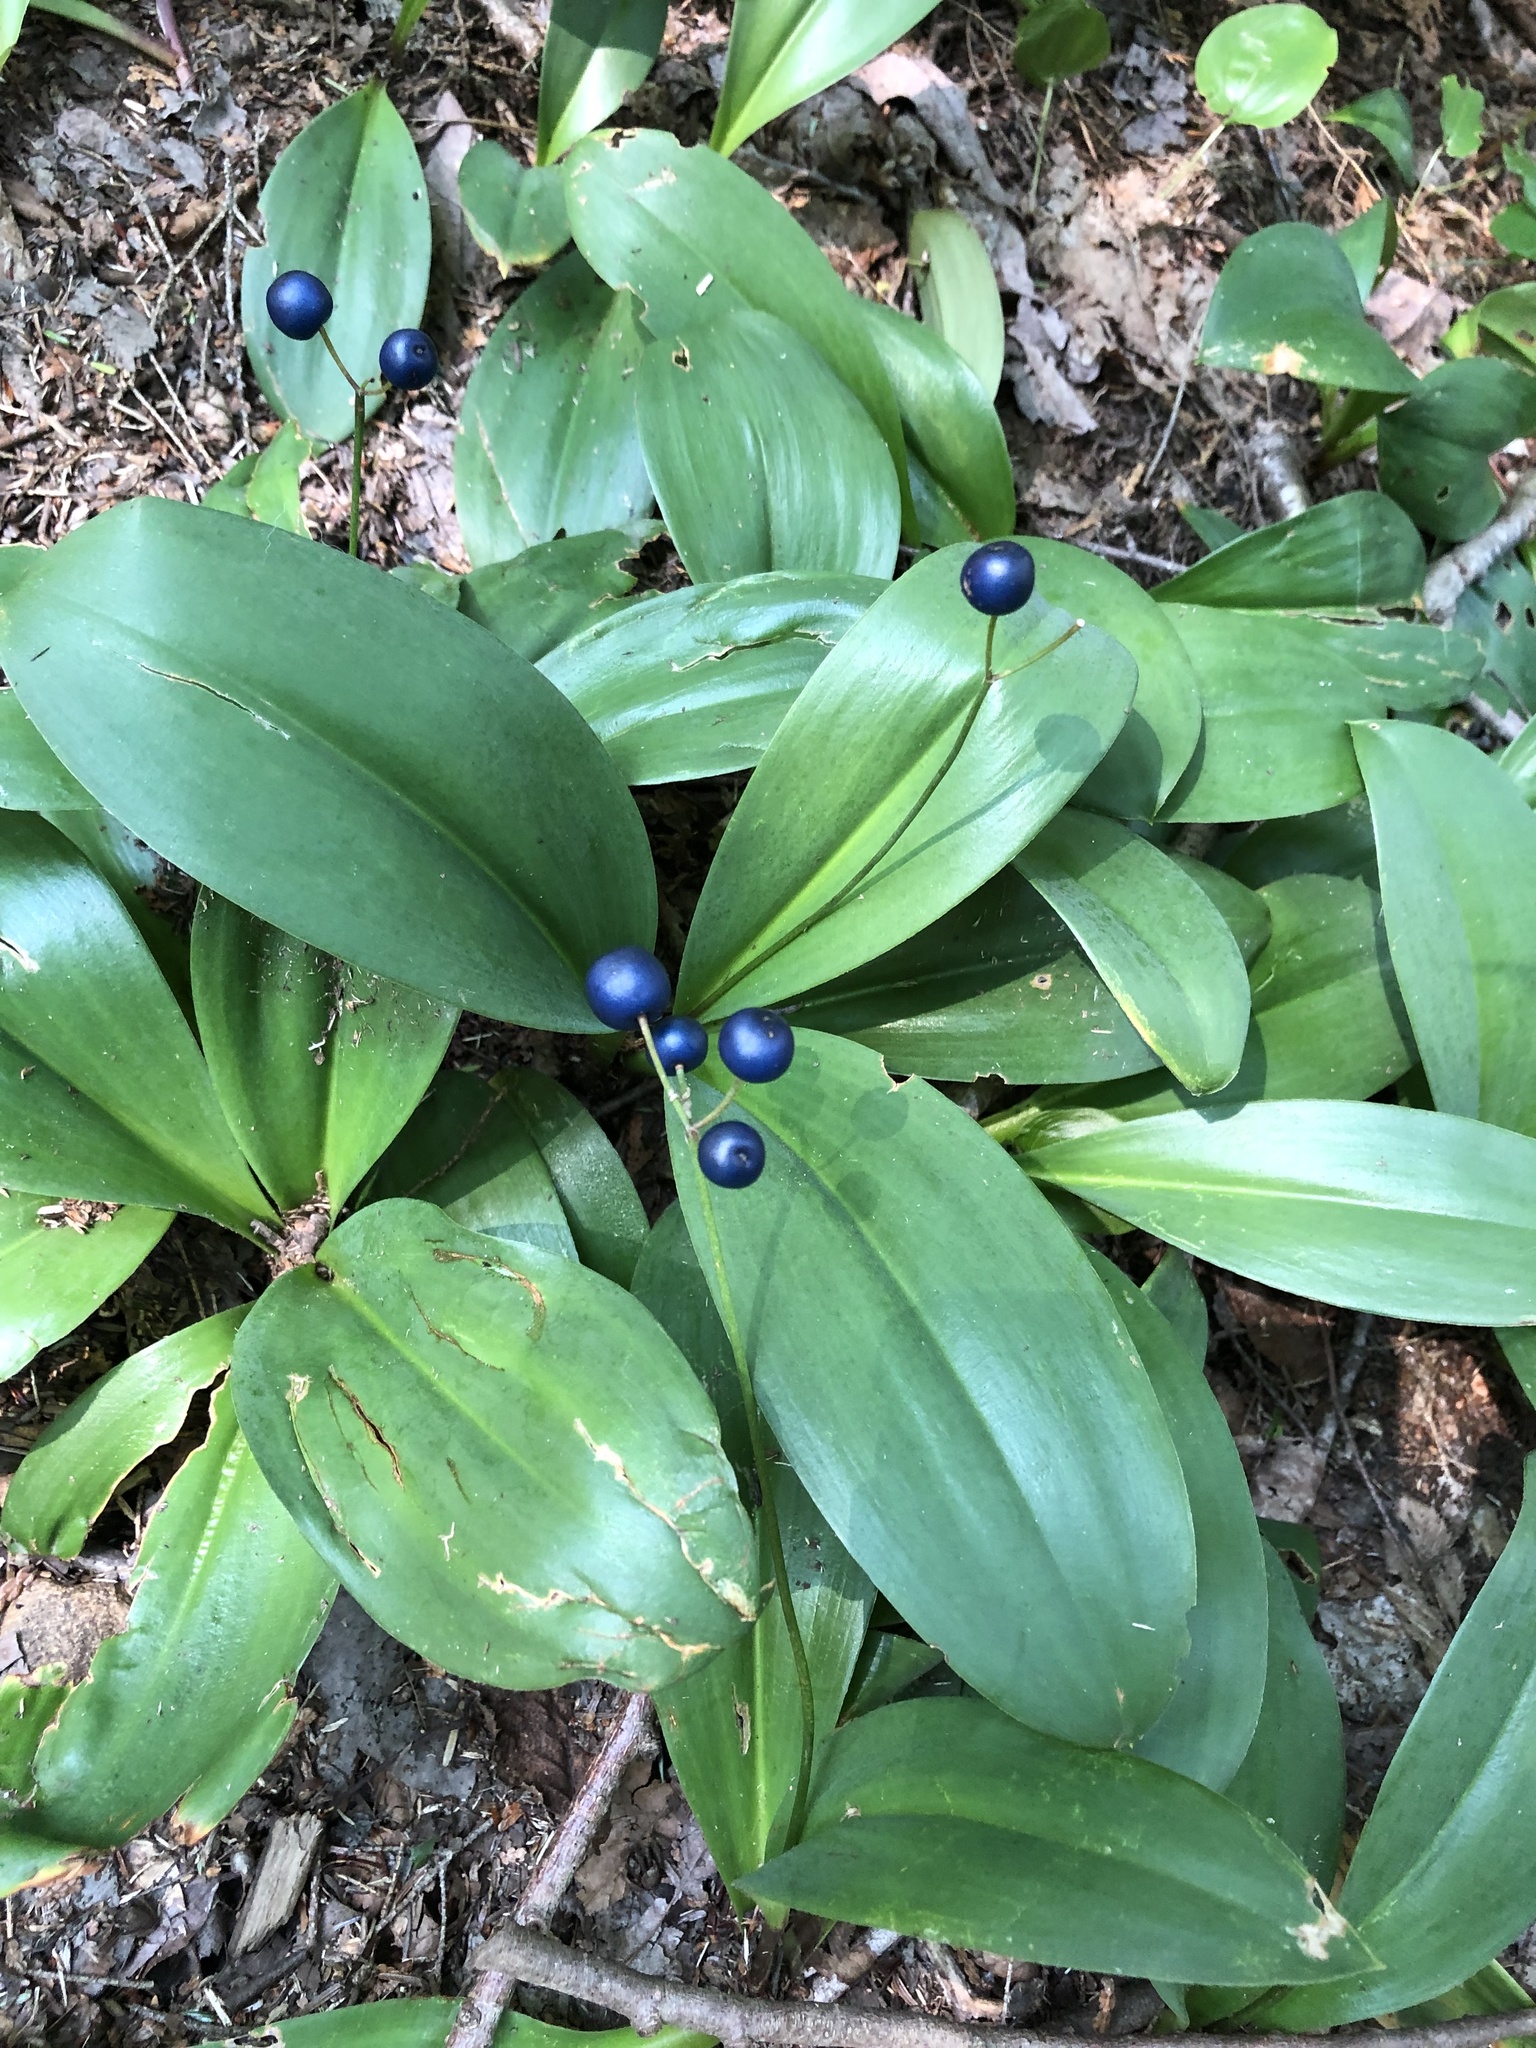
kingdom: Plantae
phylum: Tracheophyta
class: Liliopsida
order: Liliales
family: Liliaceae
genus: Clintonia
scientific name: Clintonia borealis
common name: Yellow clintonia
